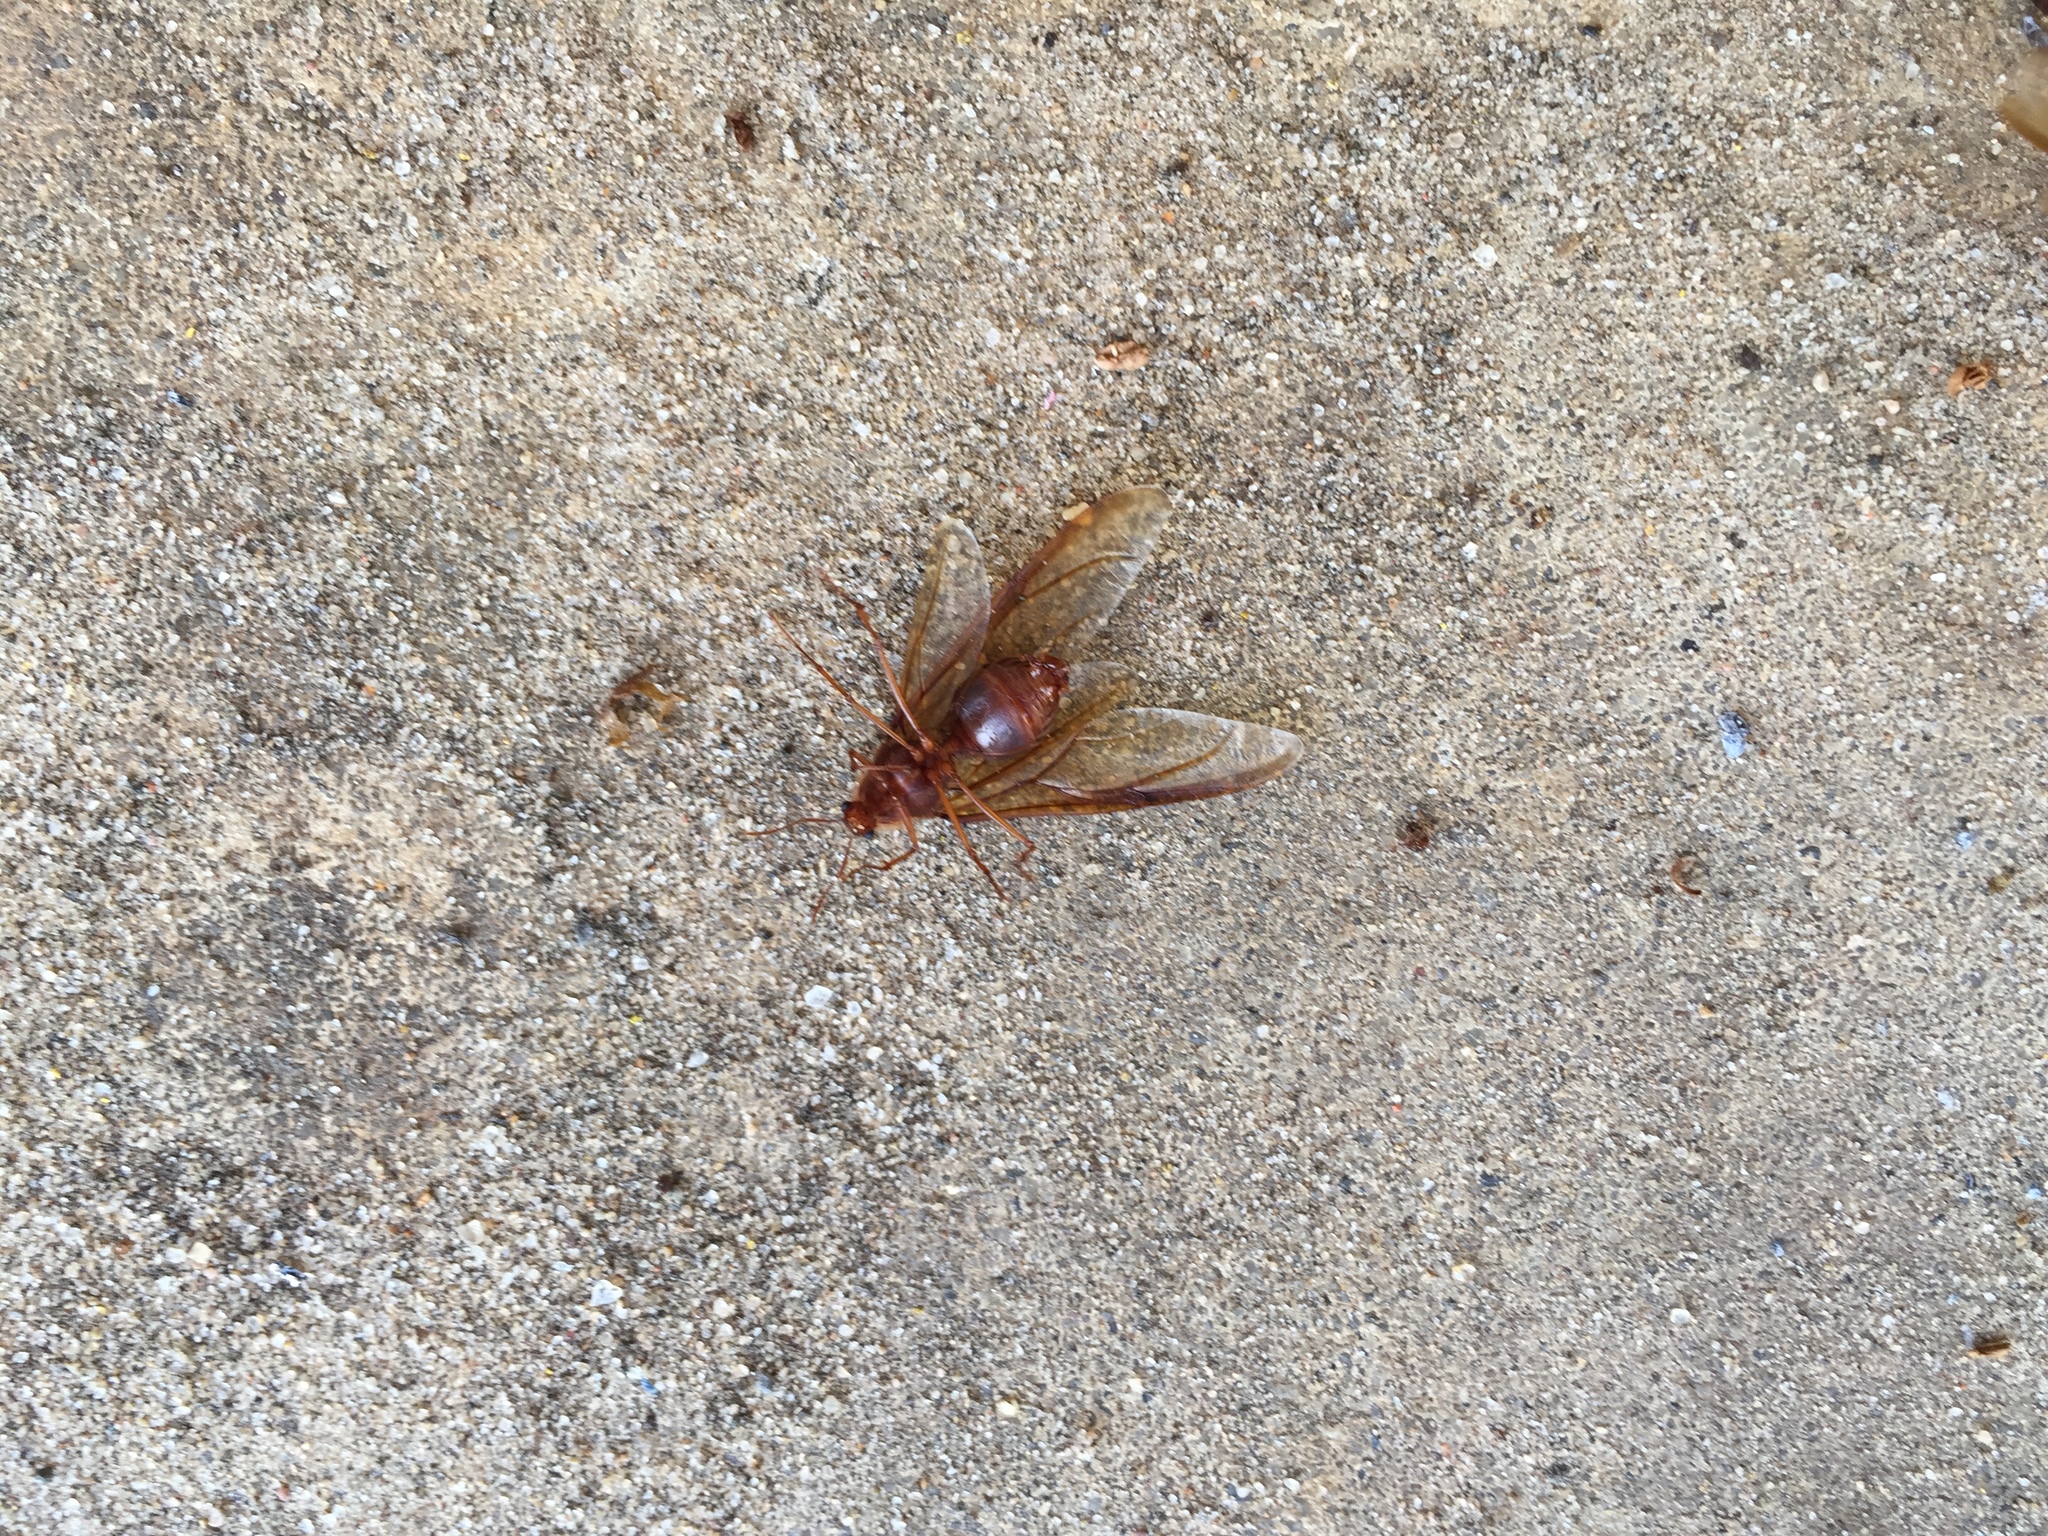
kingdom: Animalia
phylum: Arthropoda
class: Insecta
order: Hymenoptera
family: Formicidae
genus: Atta
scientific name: Atta texana
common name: Texas leafcutting ant
